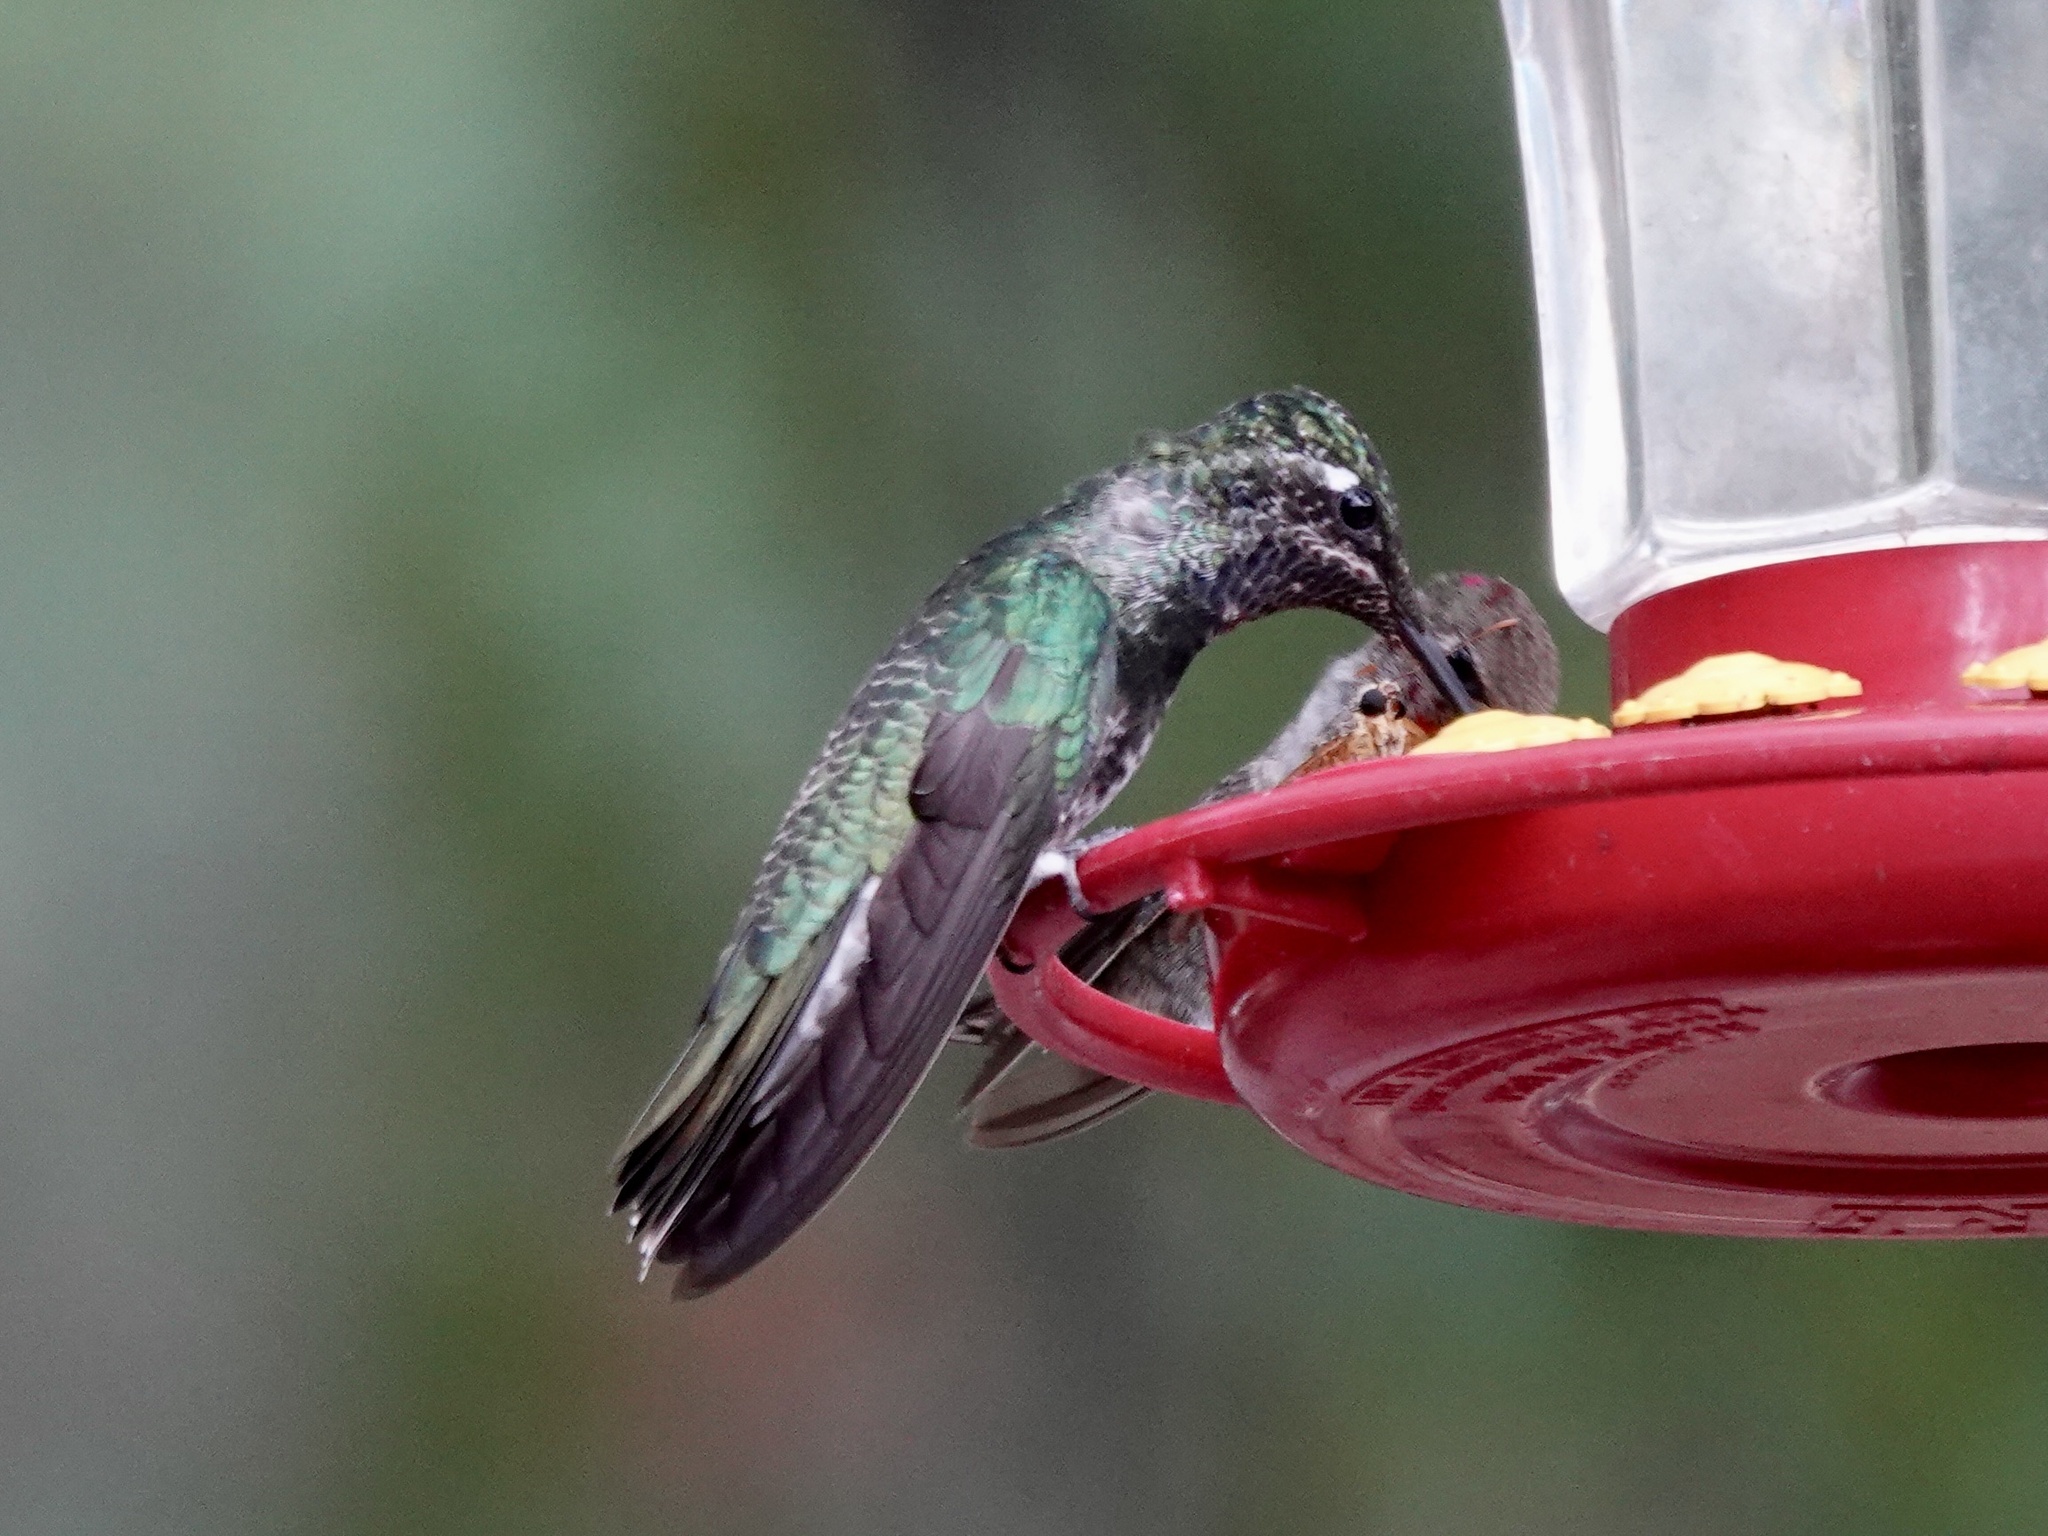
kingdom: Animalia
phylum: Chordata
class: Aves
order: Apodiformes
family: Trochilidae
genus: Eugenes
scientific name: Eugenes fulgens
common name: Magnificent hummingbird
